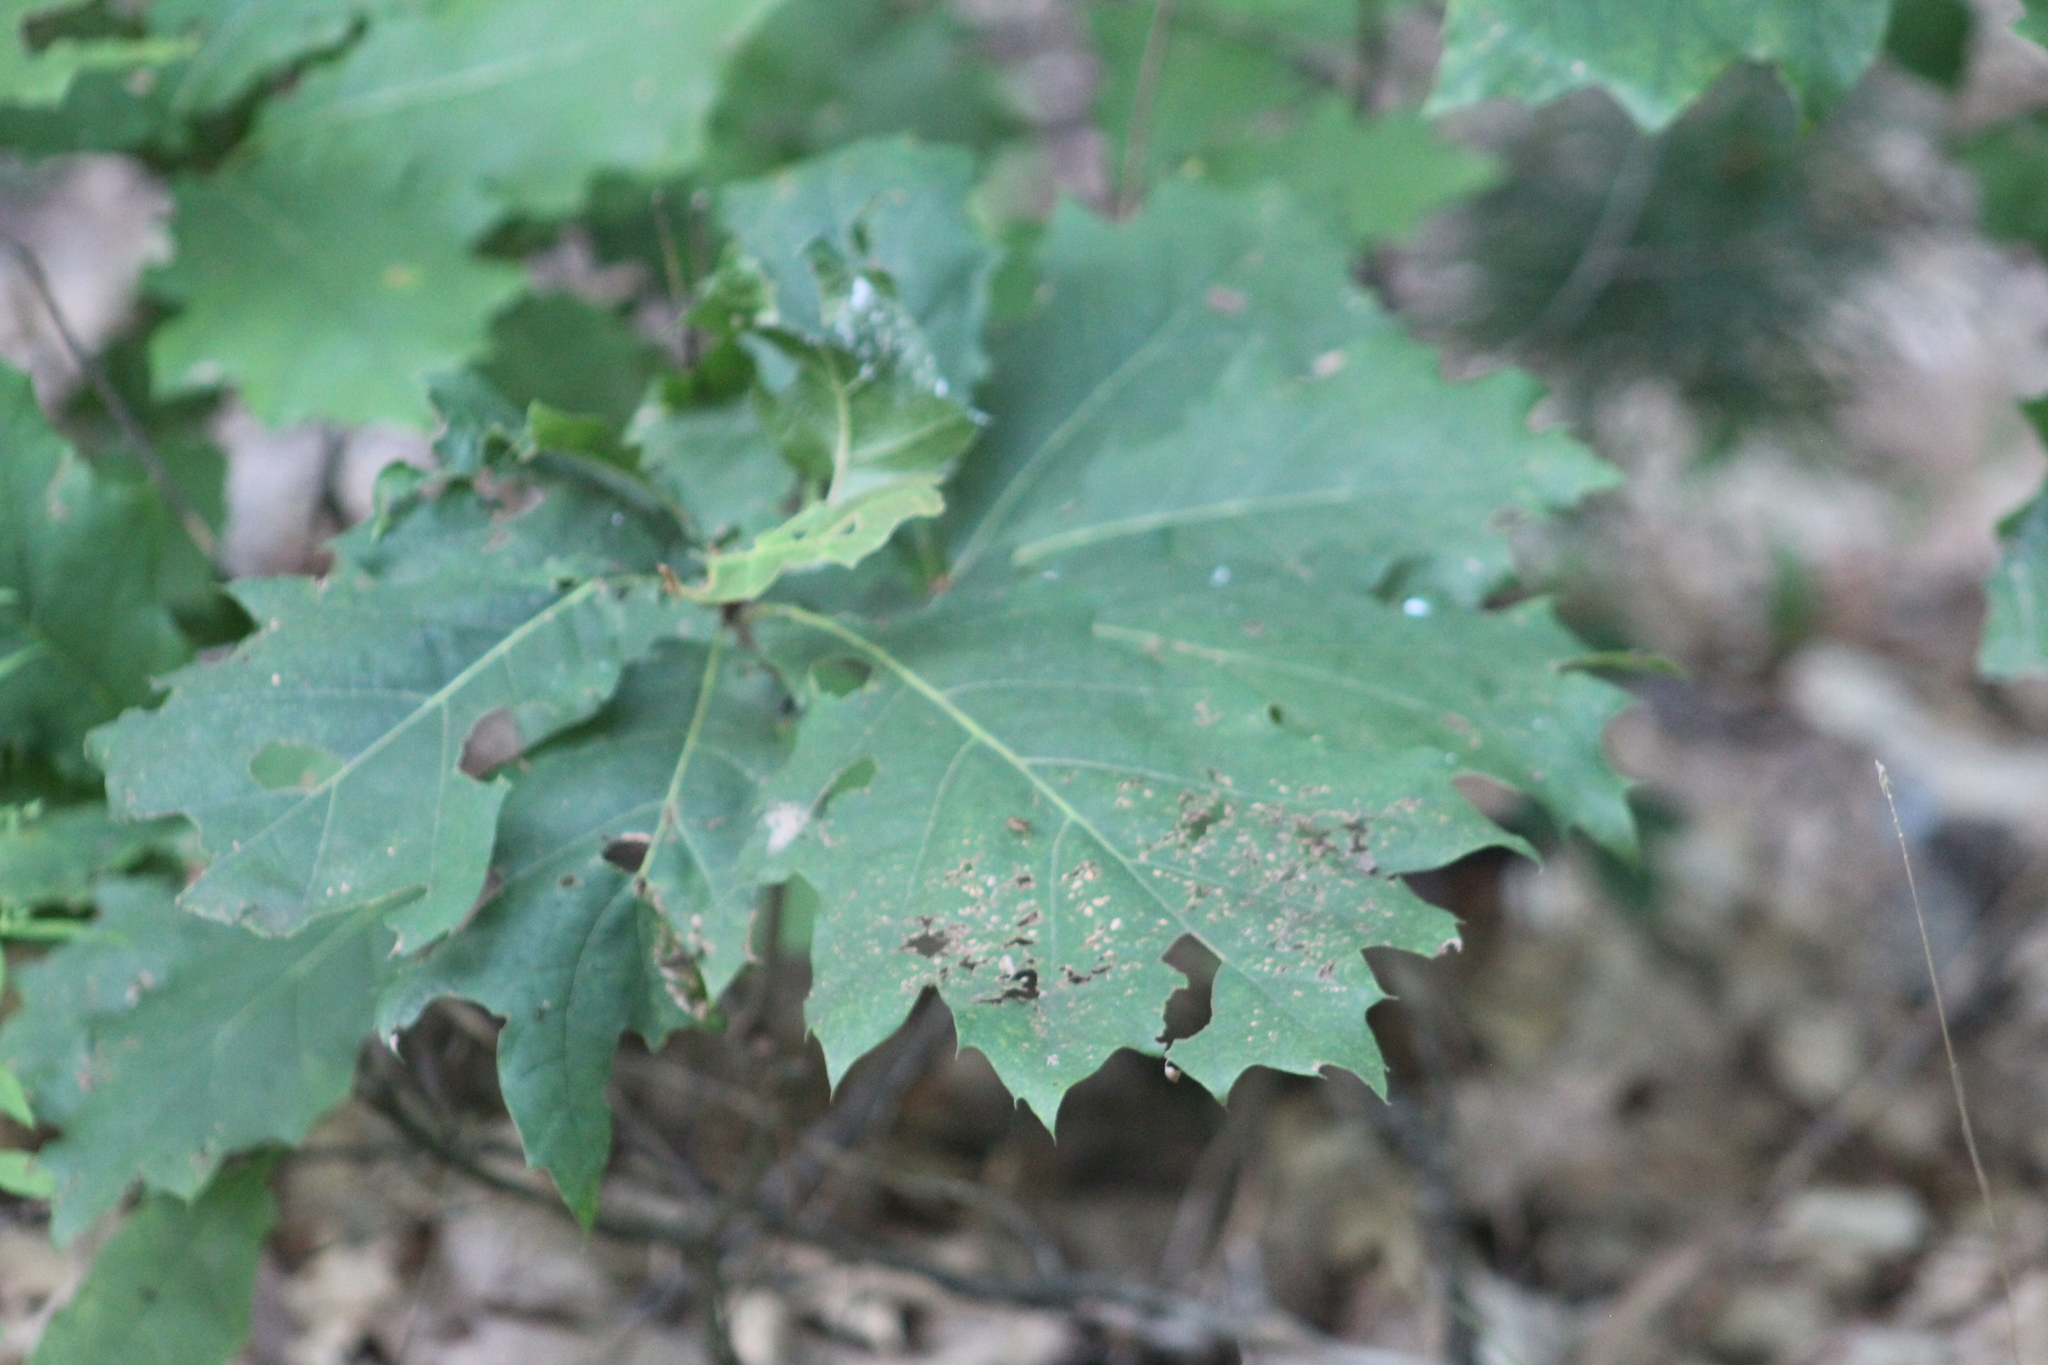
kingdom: Plantae
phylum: Tracheophyta
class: Magnoliopsida
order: Fagales
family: Fagaceae
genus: Quercus
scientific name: Quercus rubra
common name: Red oak
